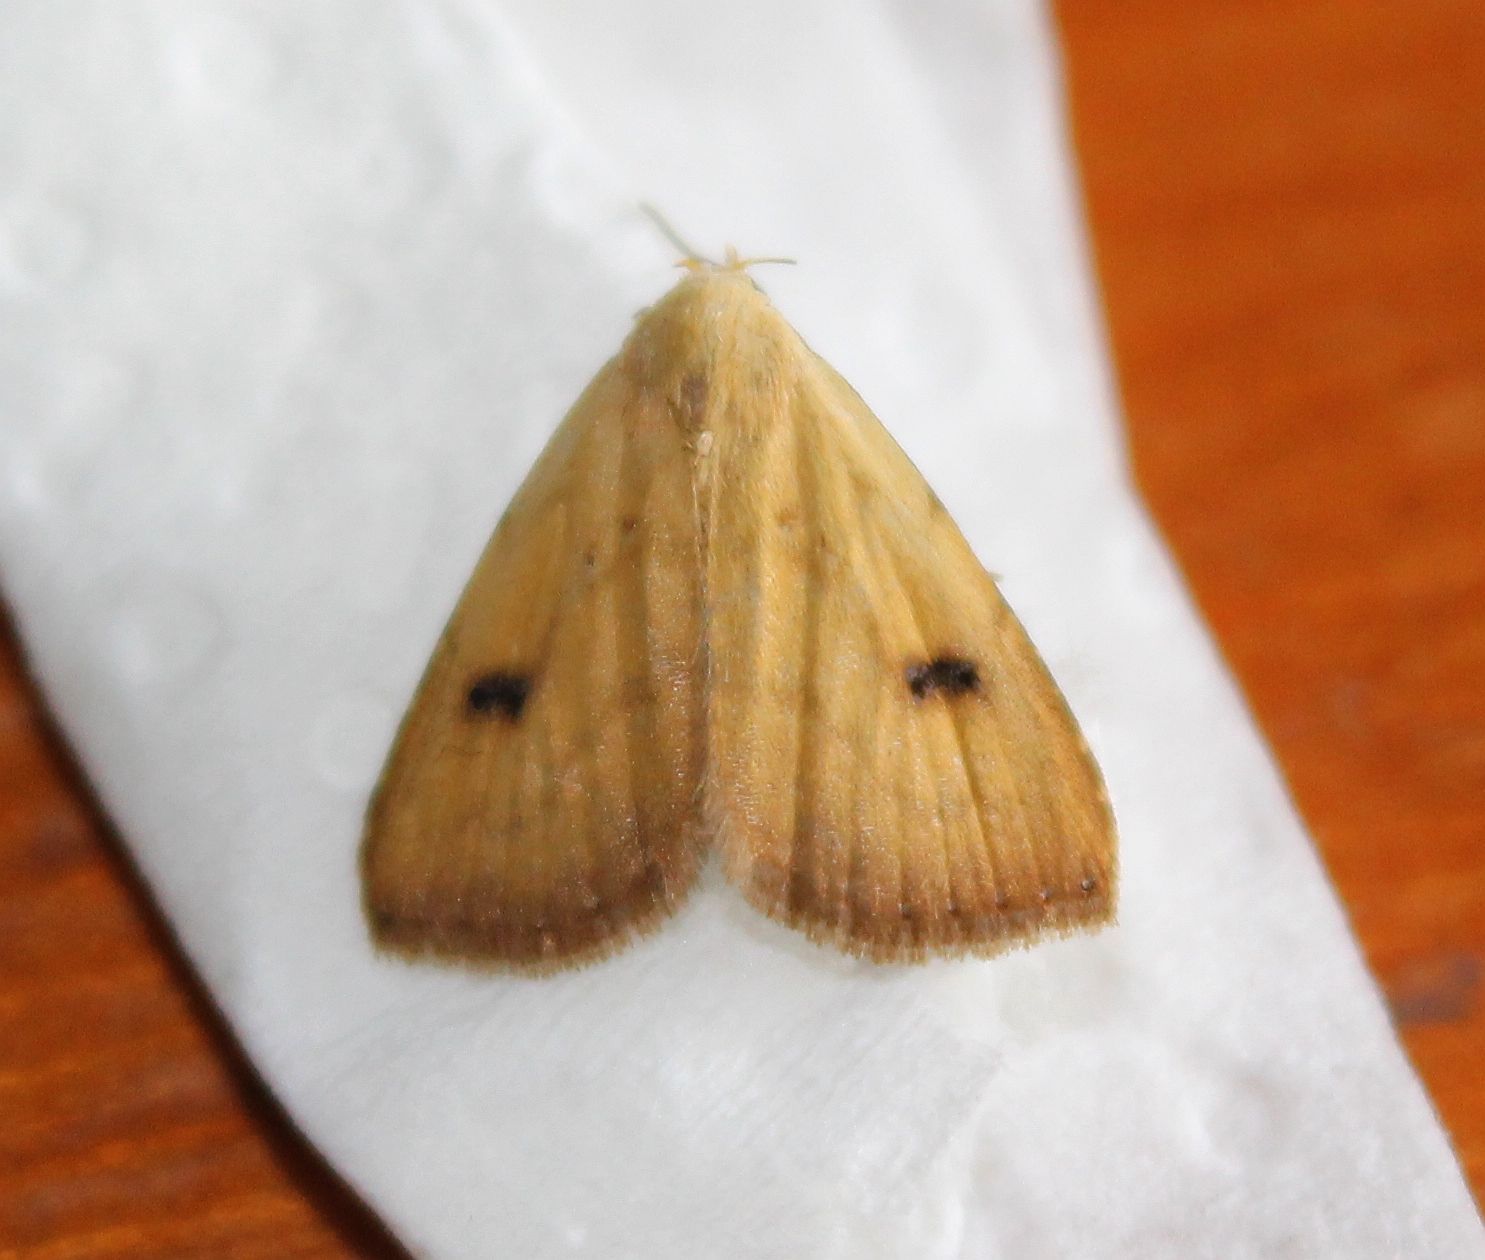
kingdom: Animalia
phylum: Arthropoda
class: Insecta
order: Lepidoptera
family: Erebidae
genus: Rivula
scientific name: Rivula sericealis
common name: Straw dot
